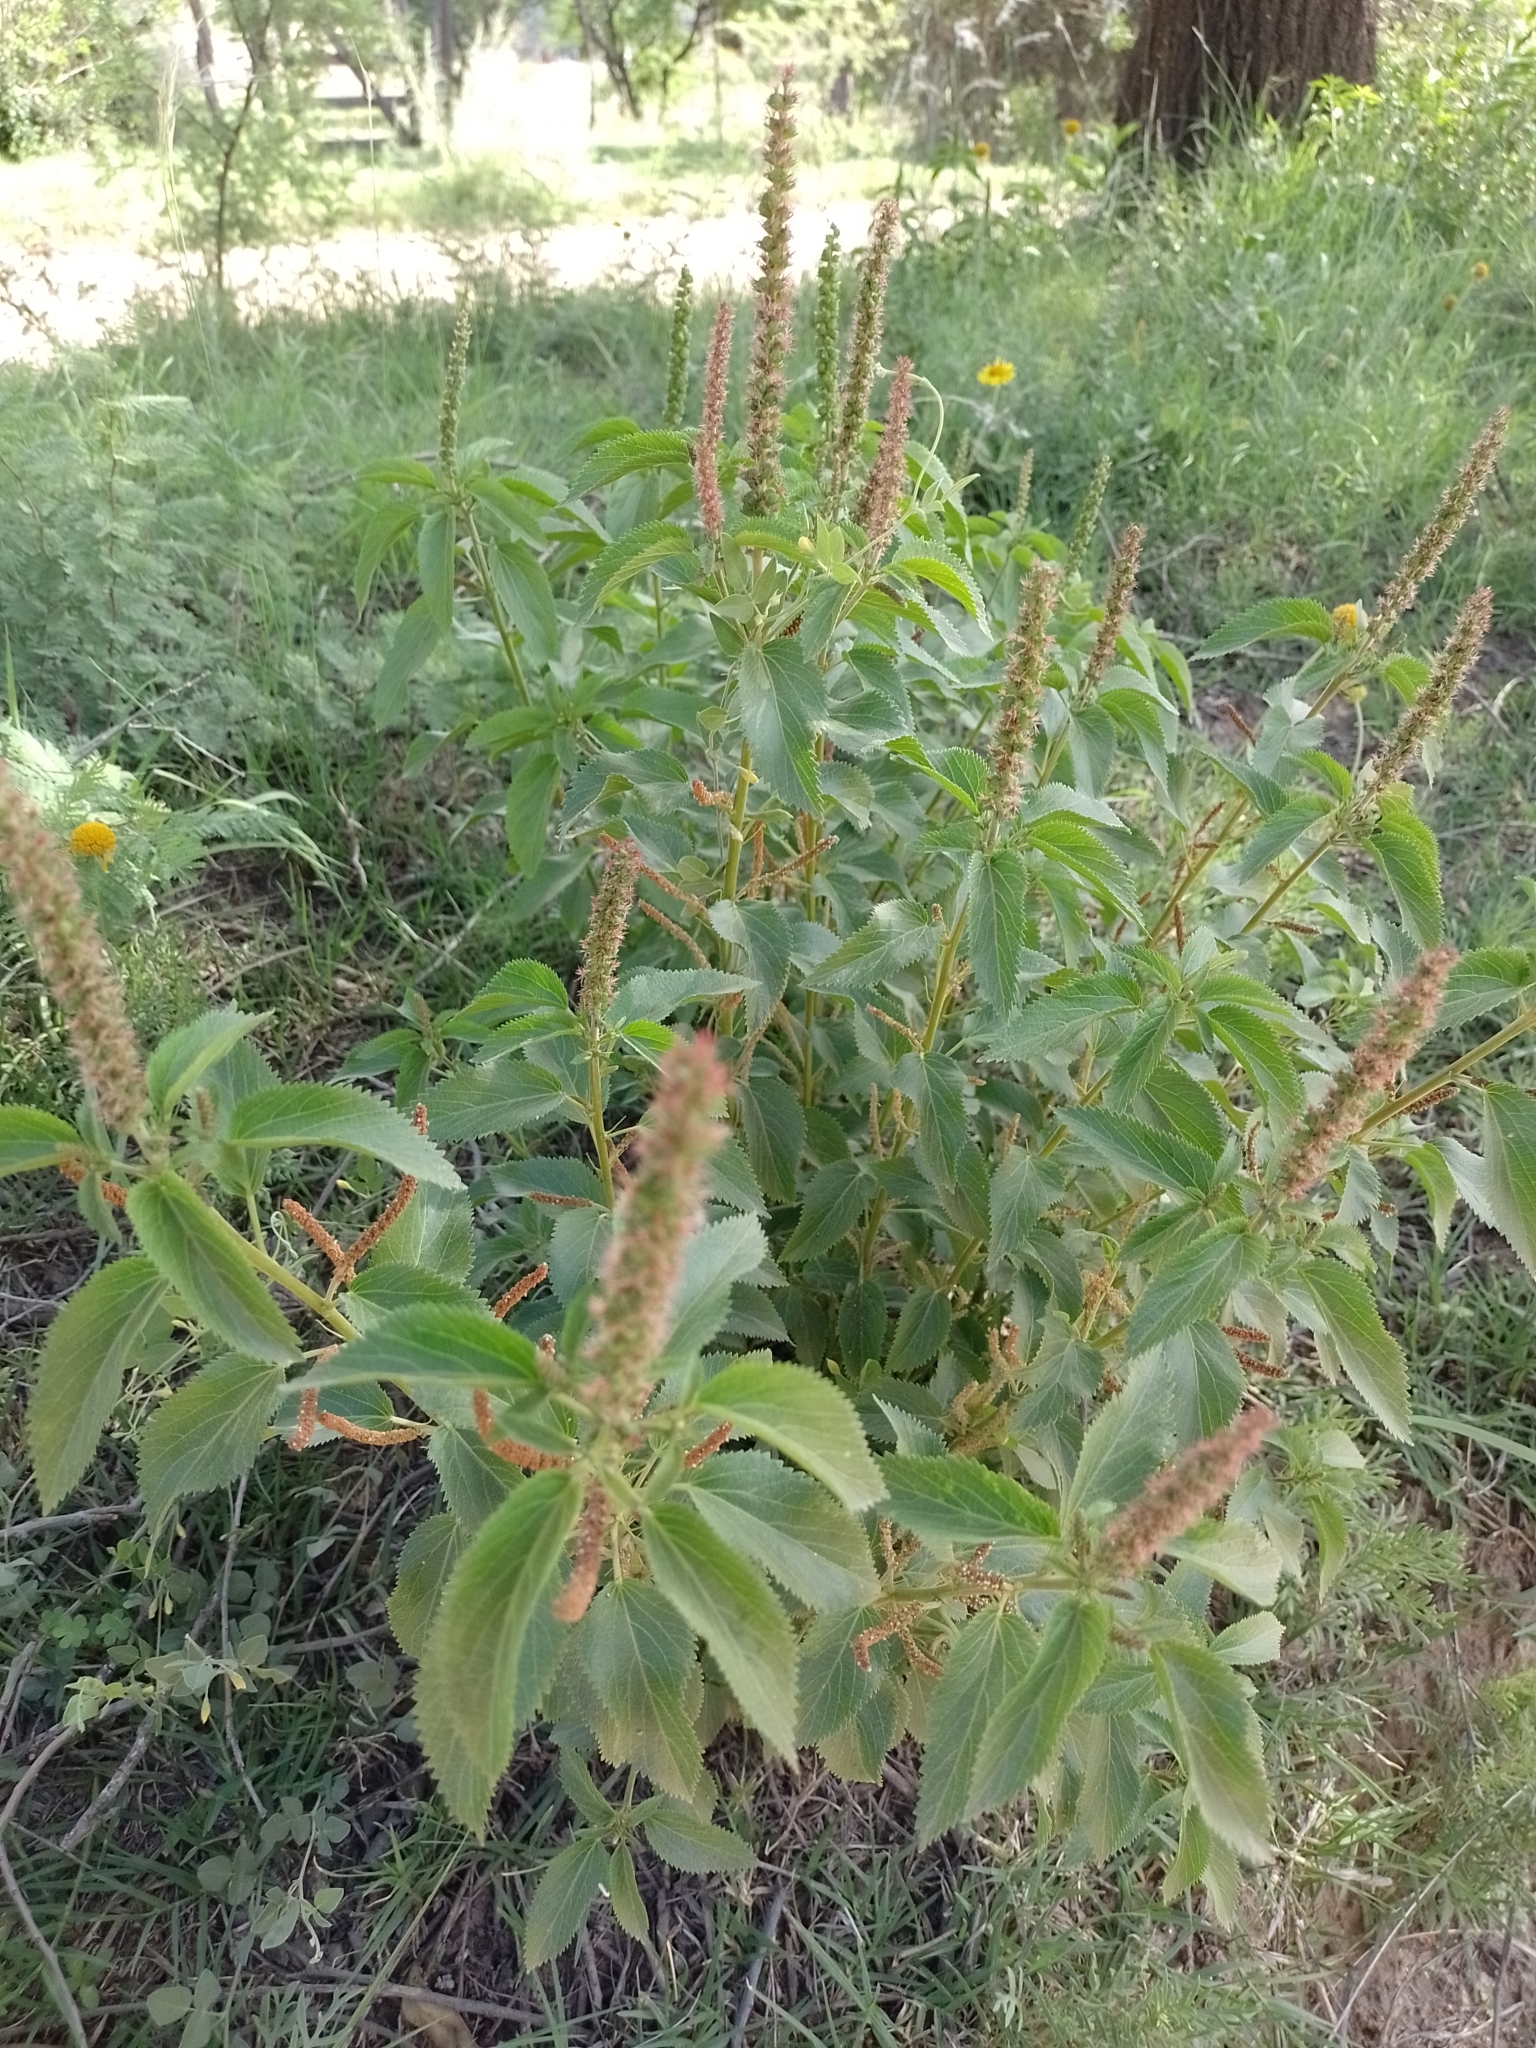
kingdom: Plantae
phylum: Tracheophyta
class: Magnoliopsida
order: Malpighiales
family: Euphorbiaceae
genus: Acalypha
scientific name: Acalypha communis
